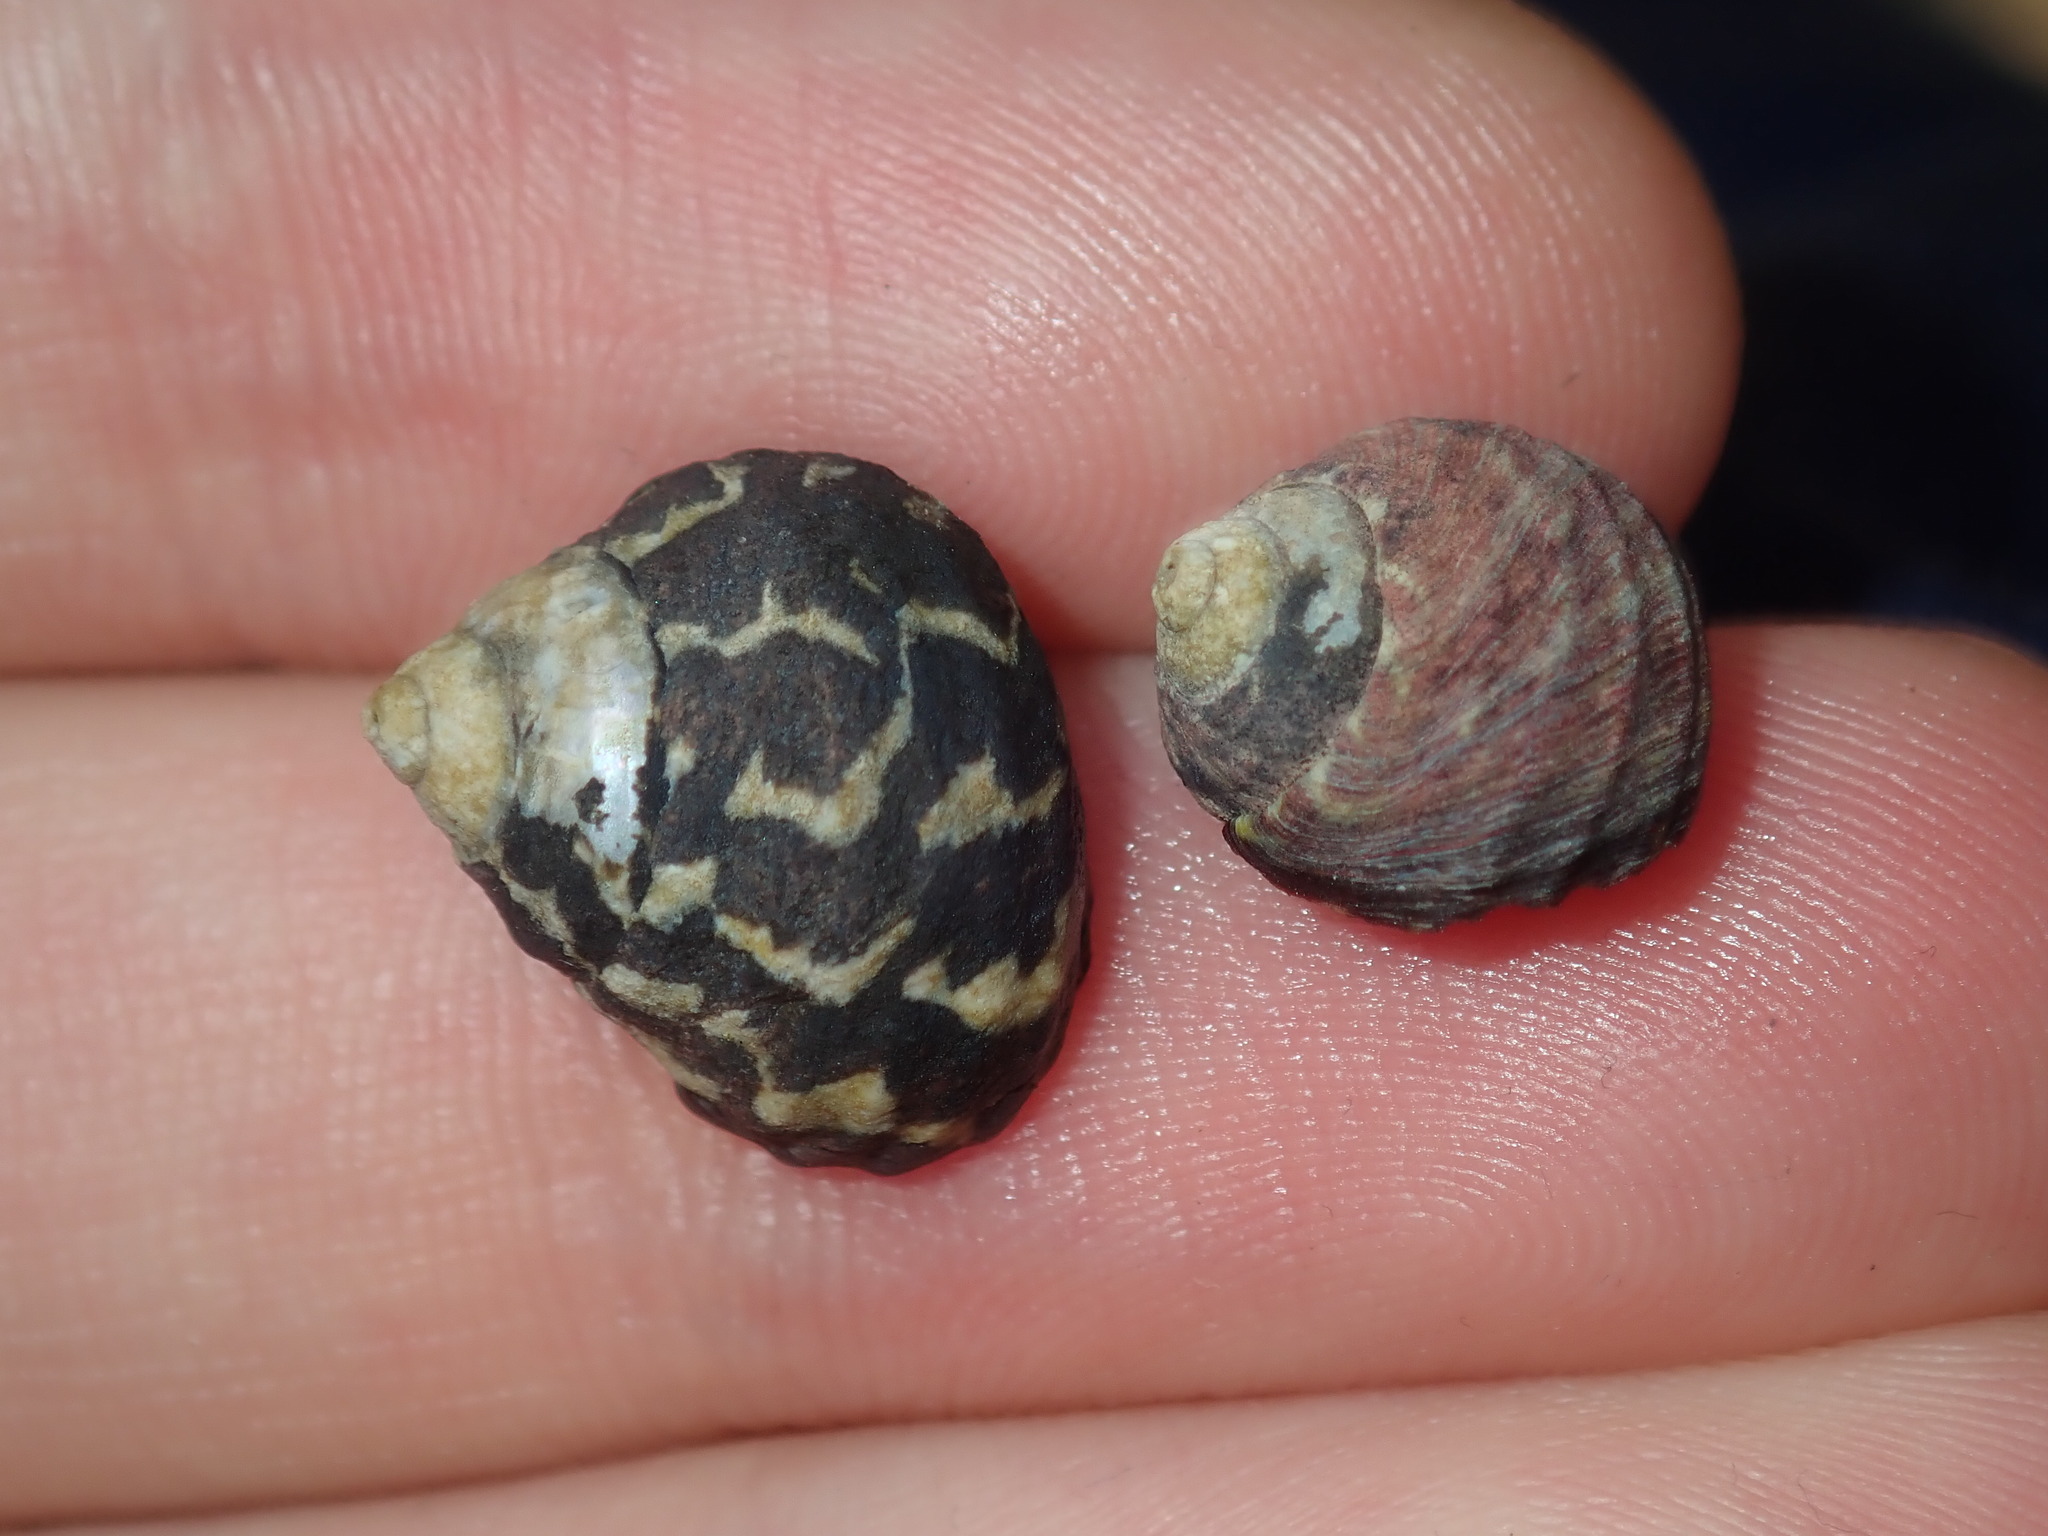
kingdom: Animalia
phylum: Mollusca
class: Gastropoda
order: Trochida
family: Trochidae
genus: Austrocochlea
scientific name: Austrocochlea porcata
